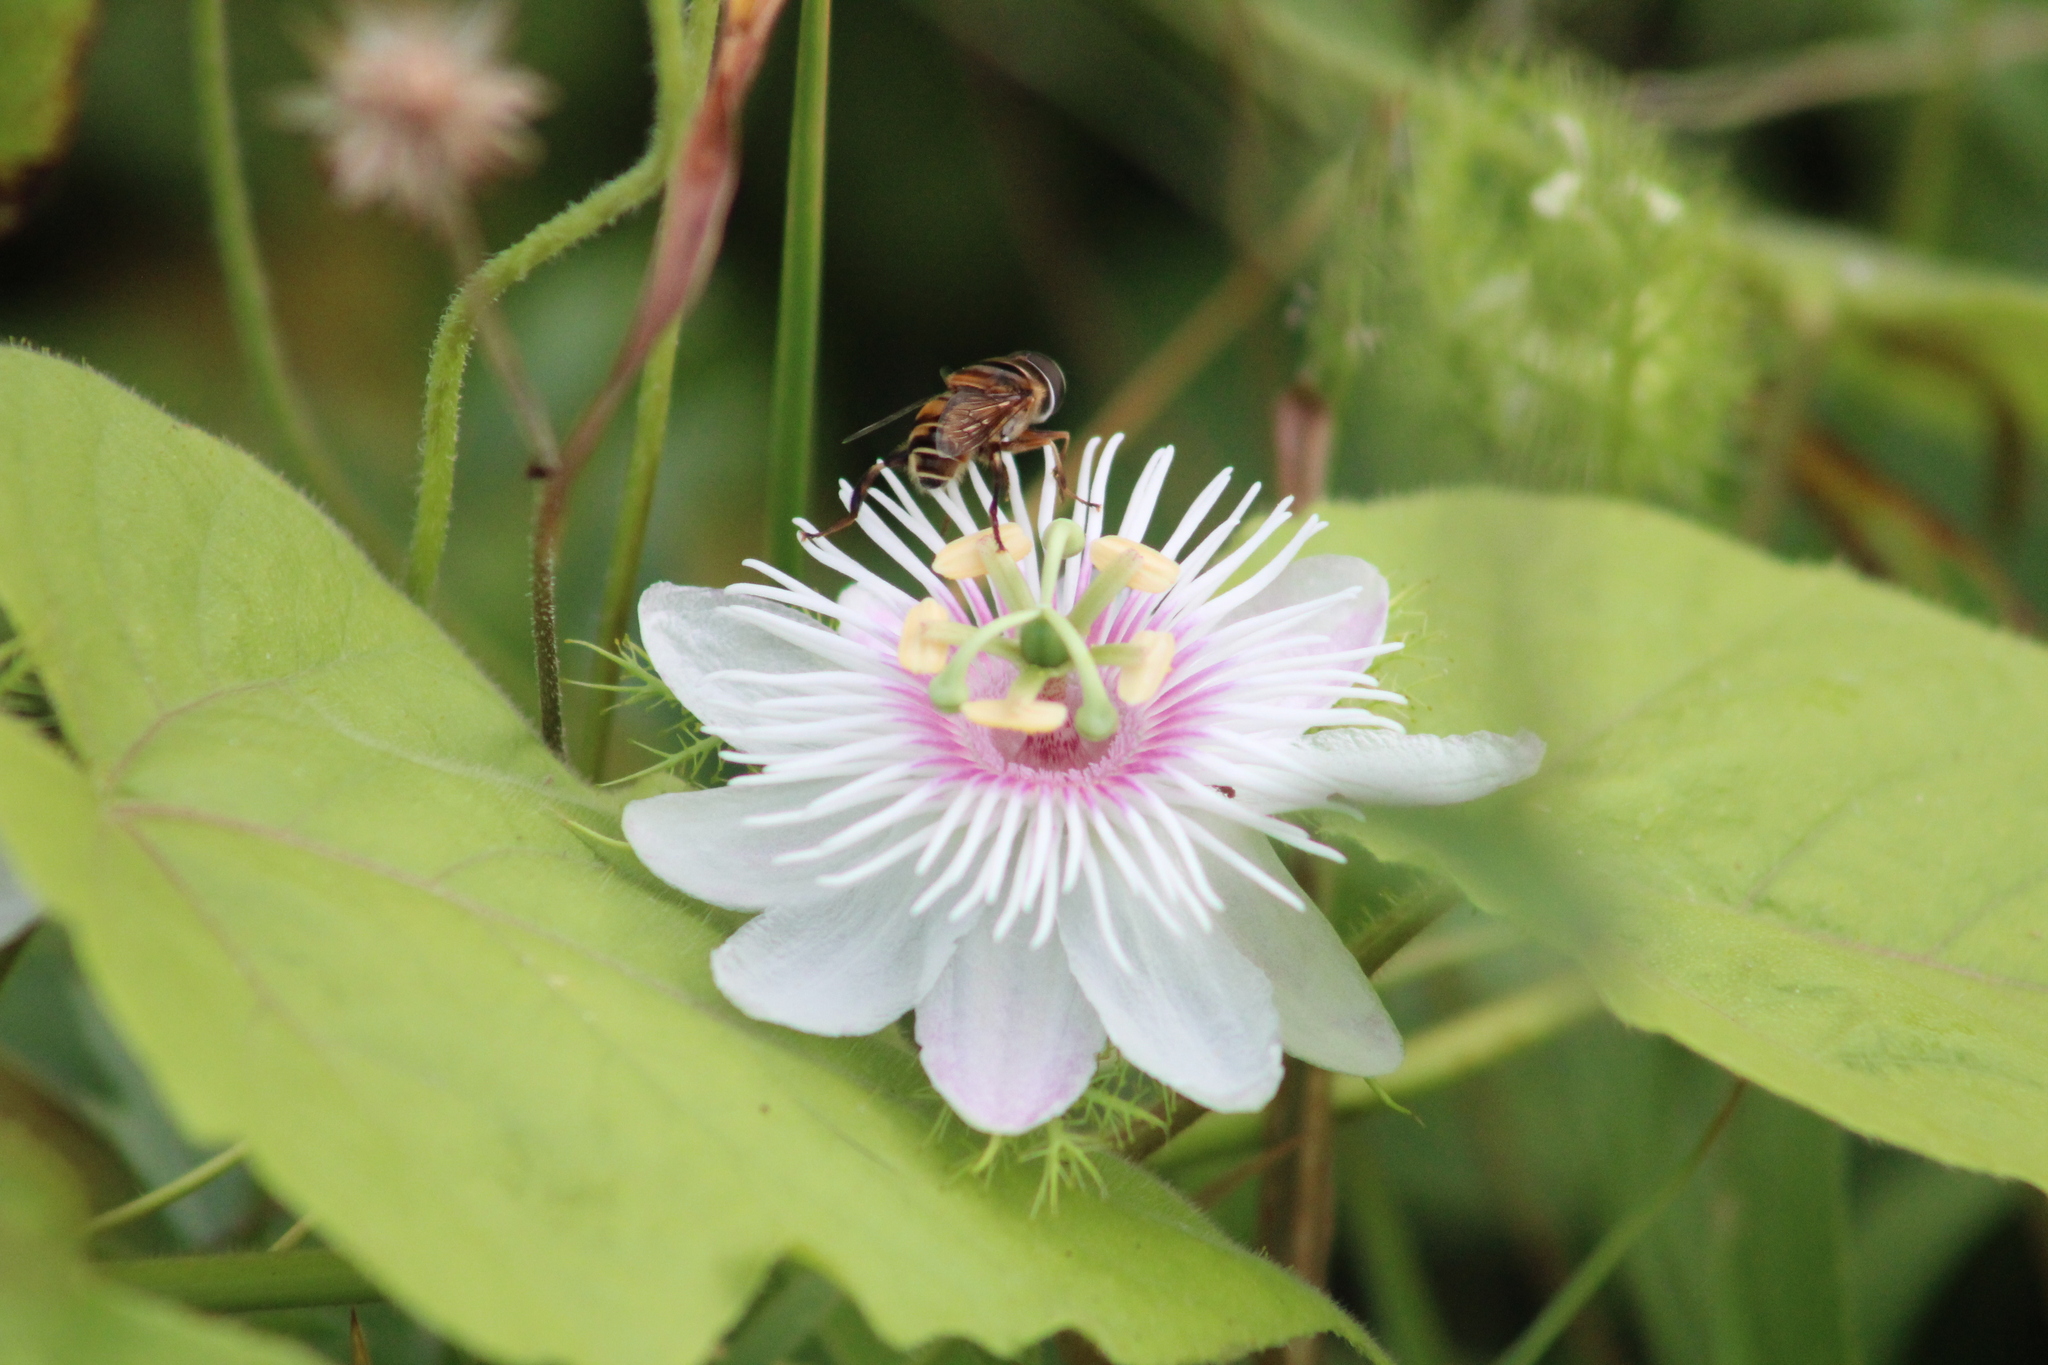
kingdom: Plantae
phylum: Tracheophyta
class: Magnoliopsida
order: Malpighiales
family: Passifloraceae
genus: Passiflora
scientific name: Passiflora vesicaria
